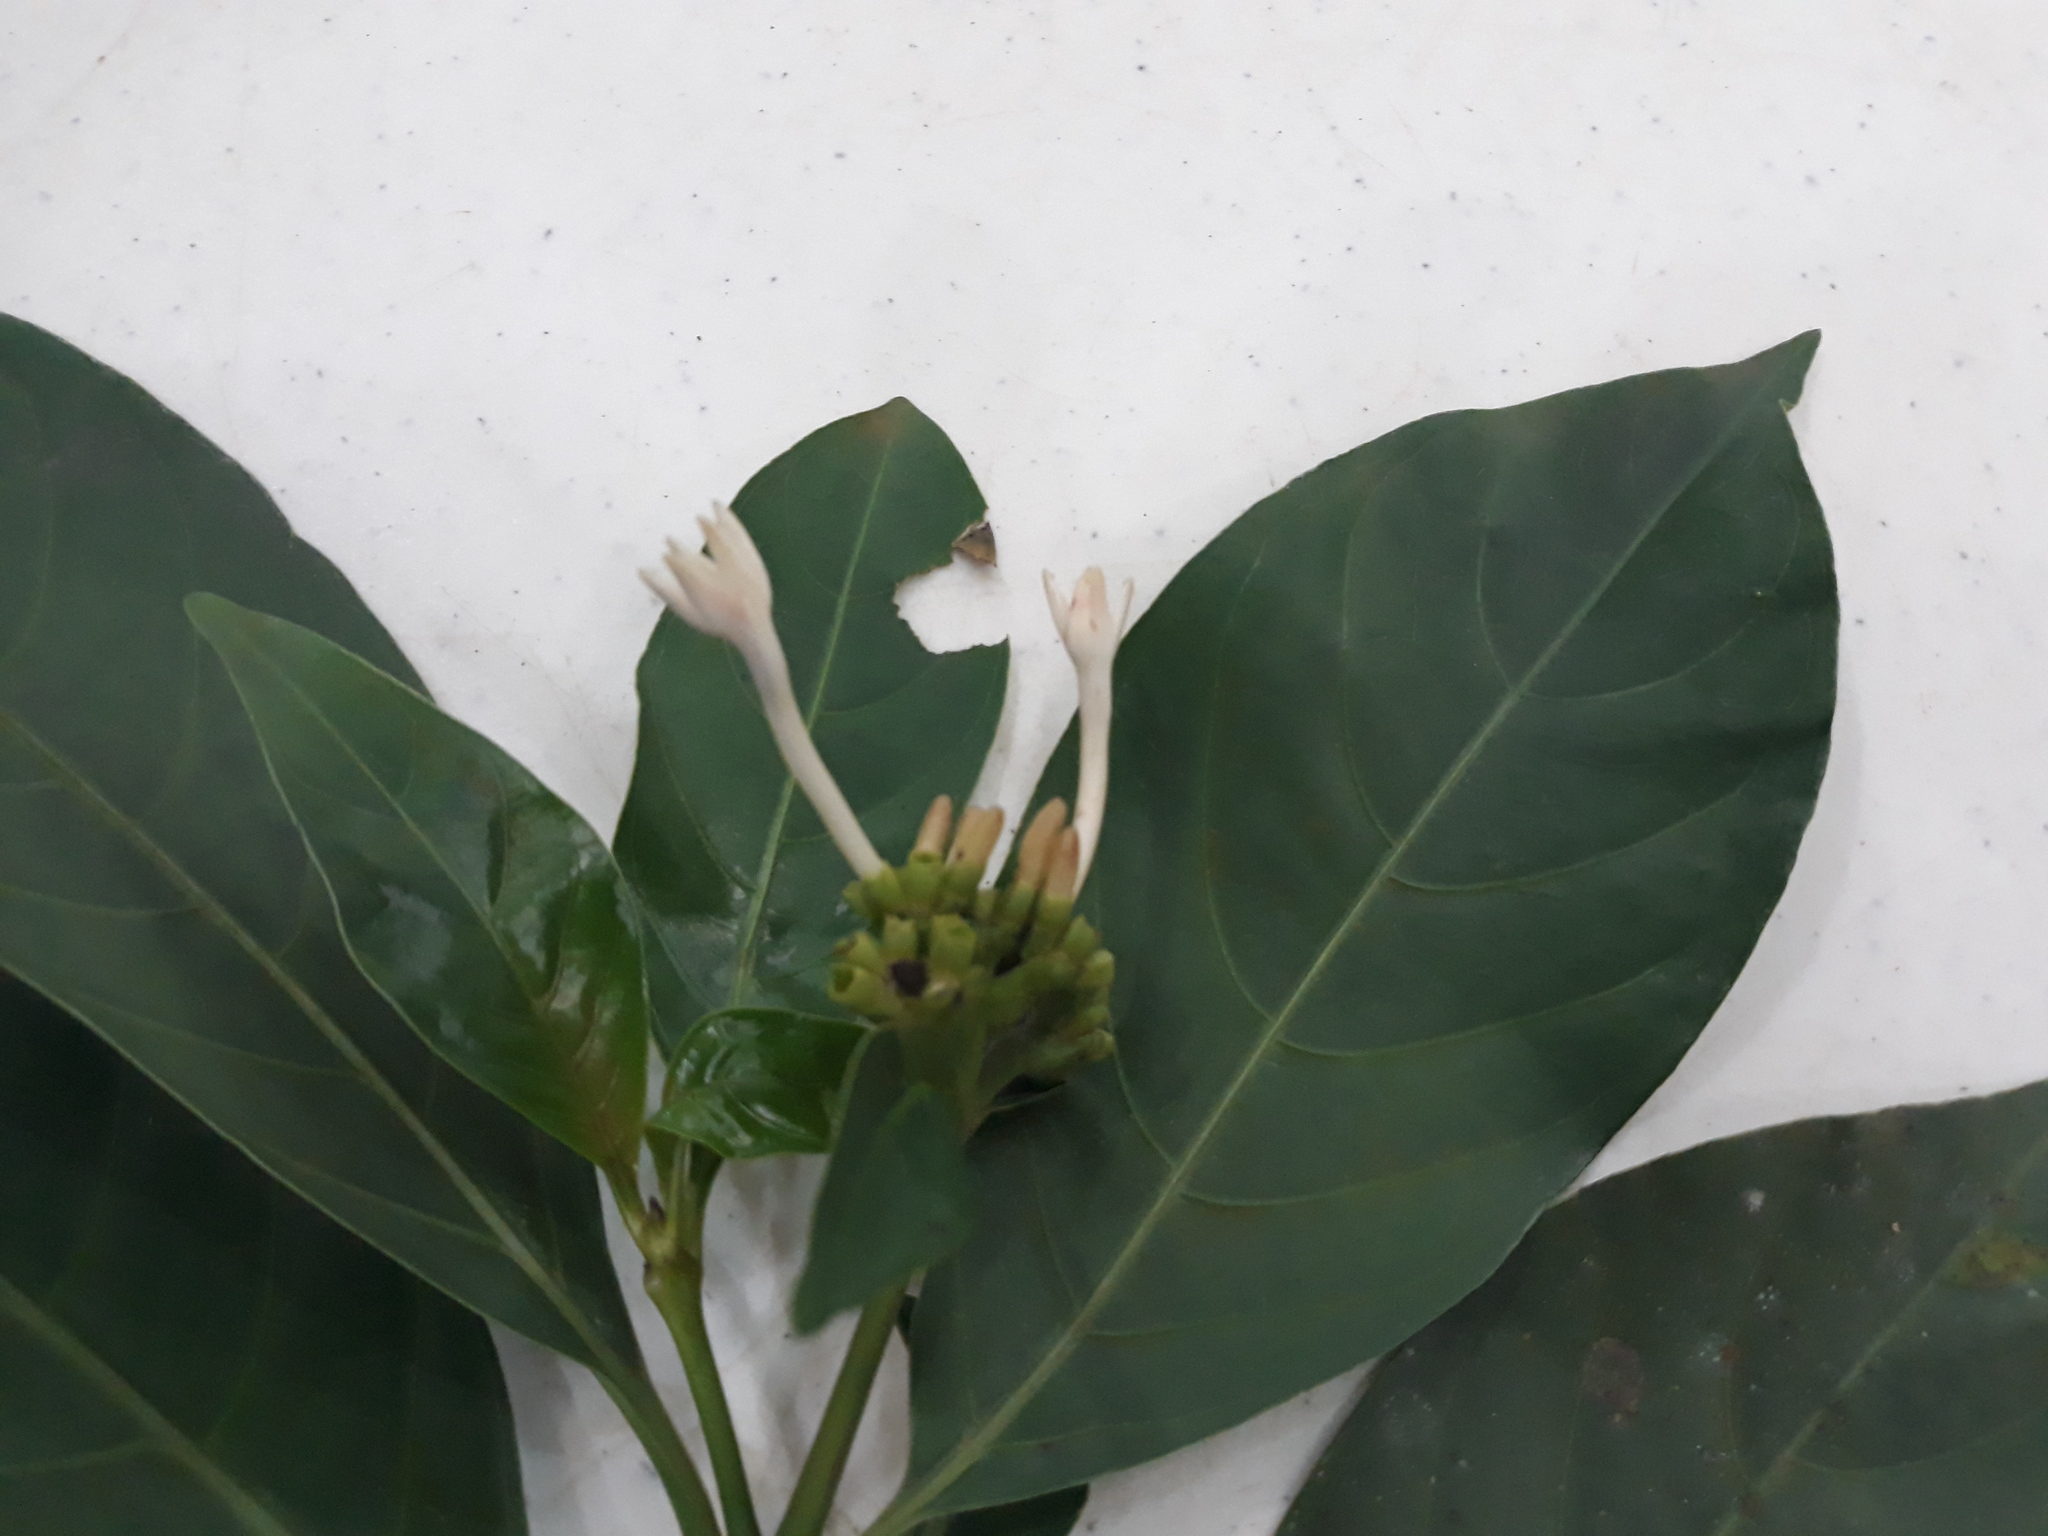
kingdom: Plantae
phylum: Tracheophyta
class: Magnoliopsida
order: Gentianales
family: Rubiaceae
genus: Palicourea
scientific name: Palicourea faxlucens
